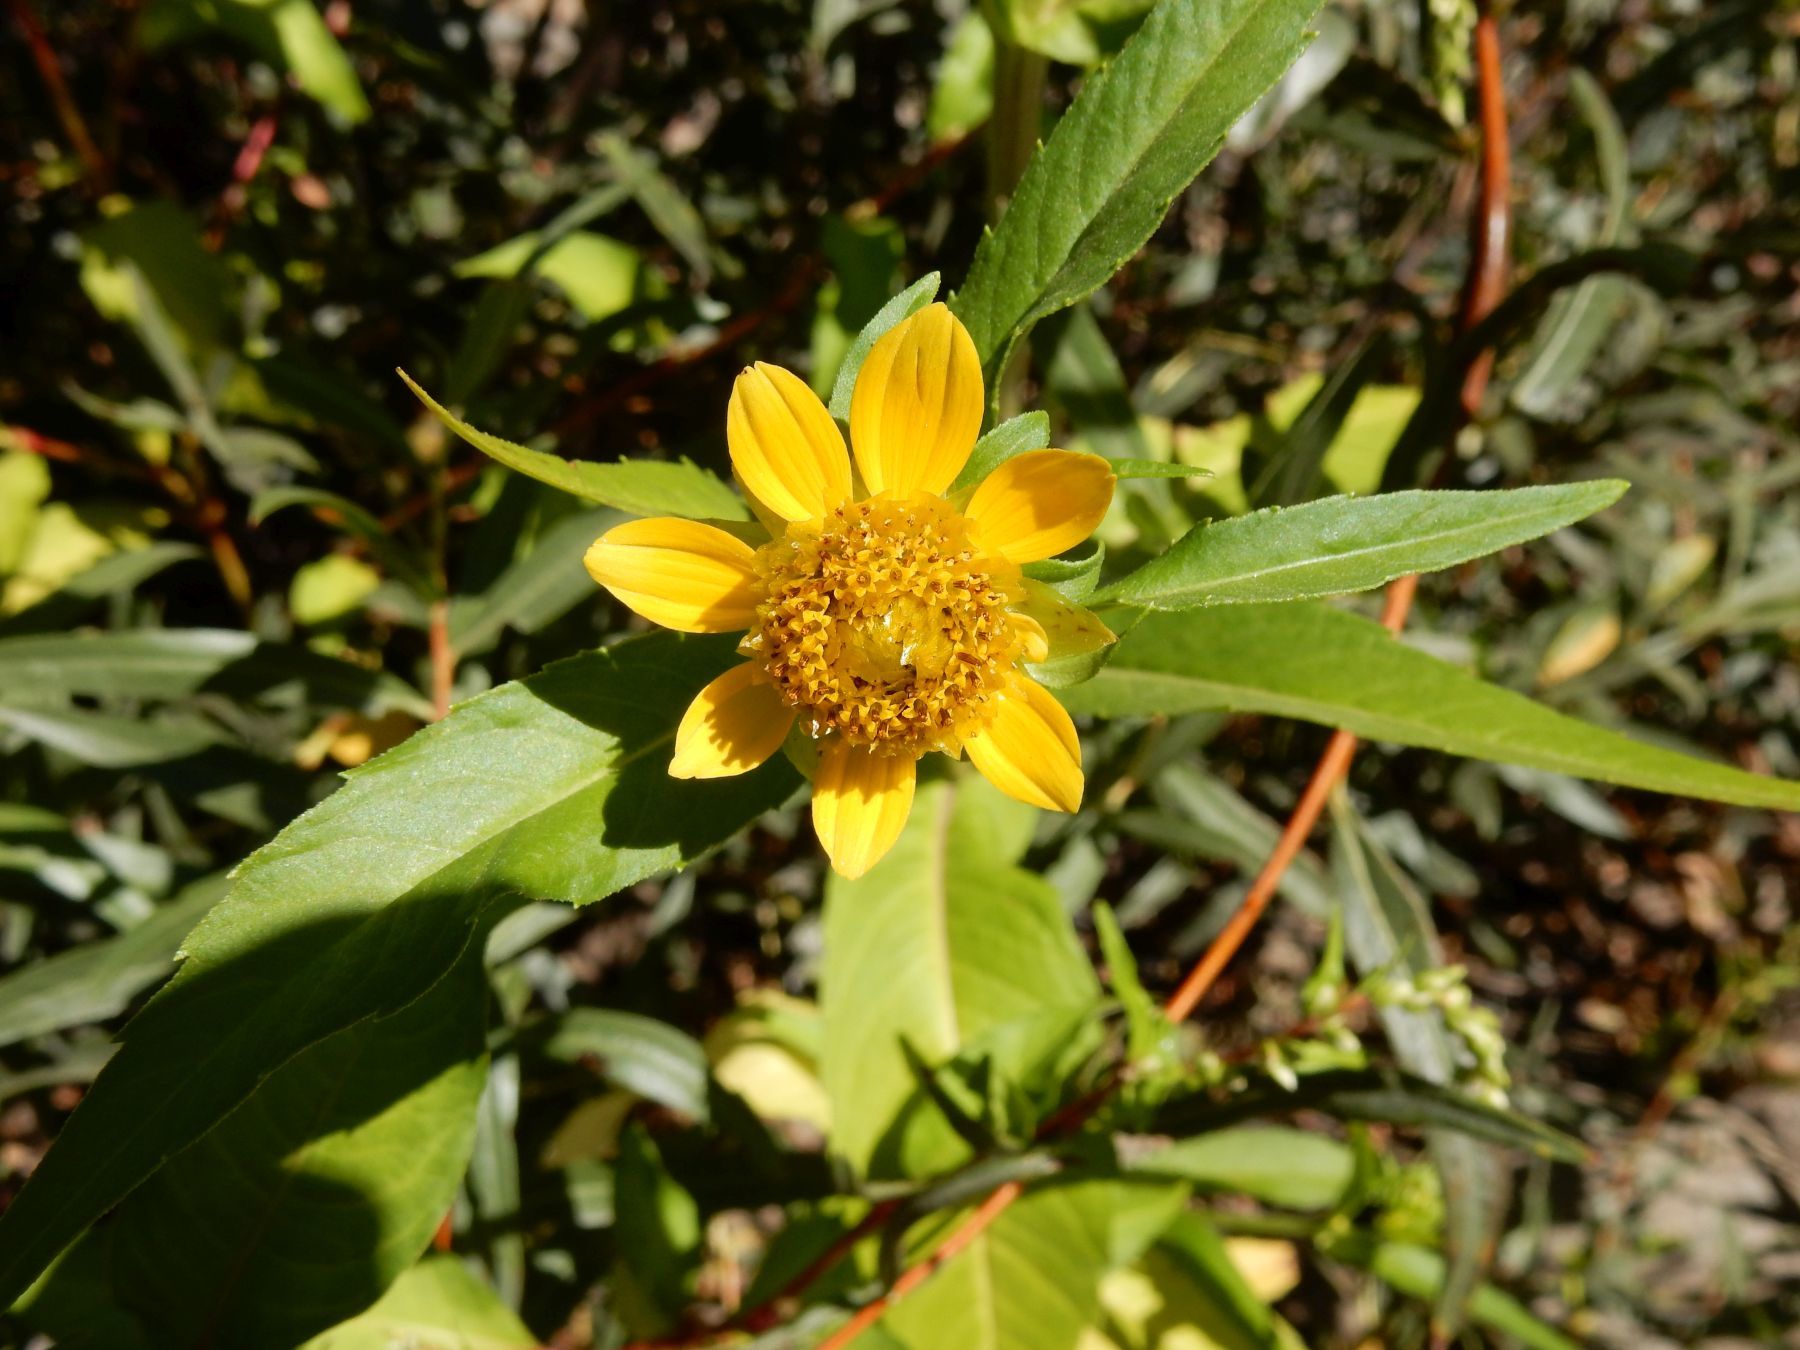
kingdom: Plantae
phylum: Tracheophyta
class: Magnoliopsida
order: Asterales
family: Asteraceae
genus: Bidens
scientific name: Bidens cernua
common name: Nodding bur-marigold
